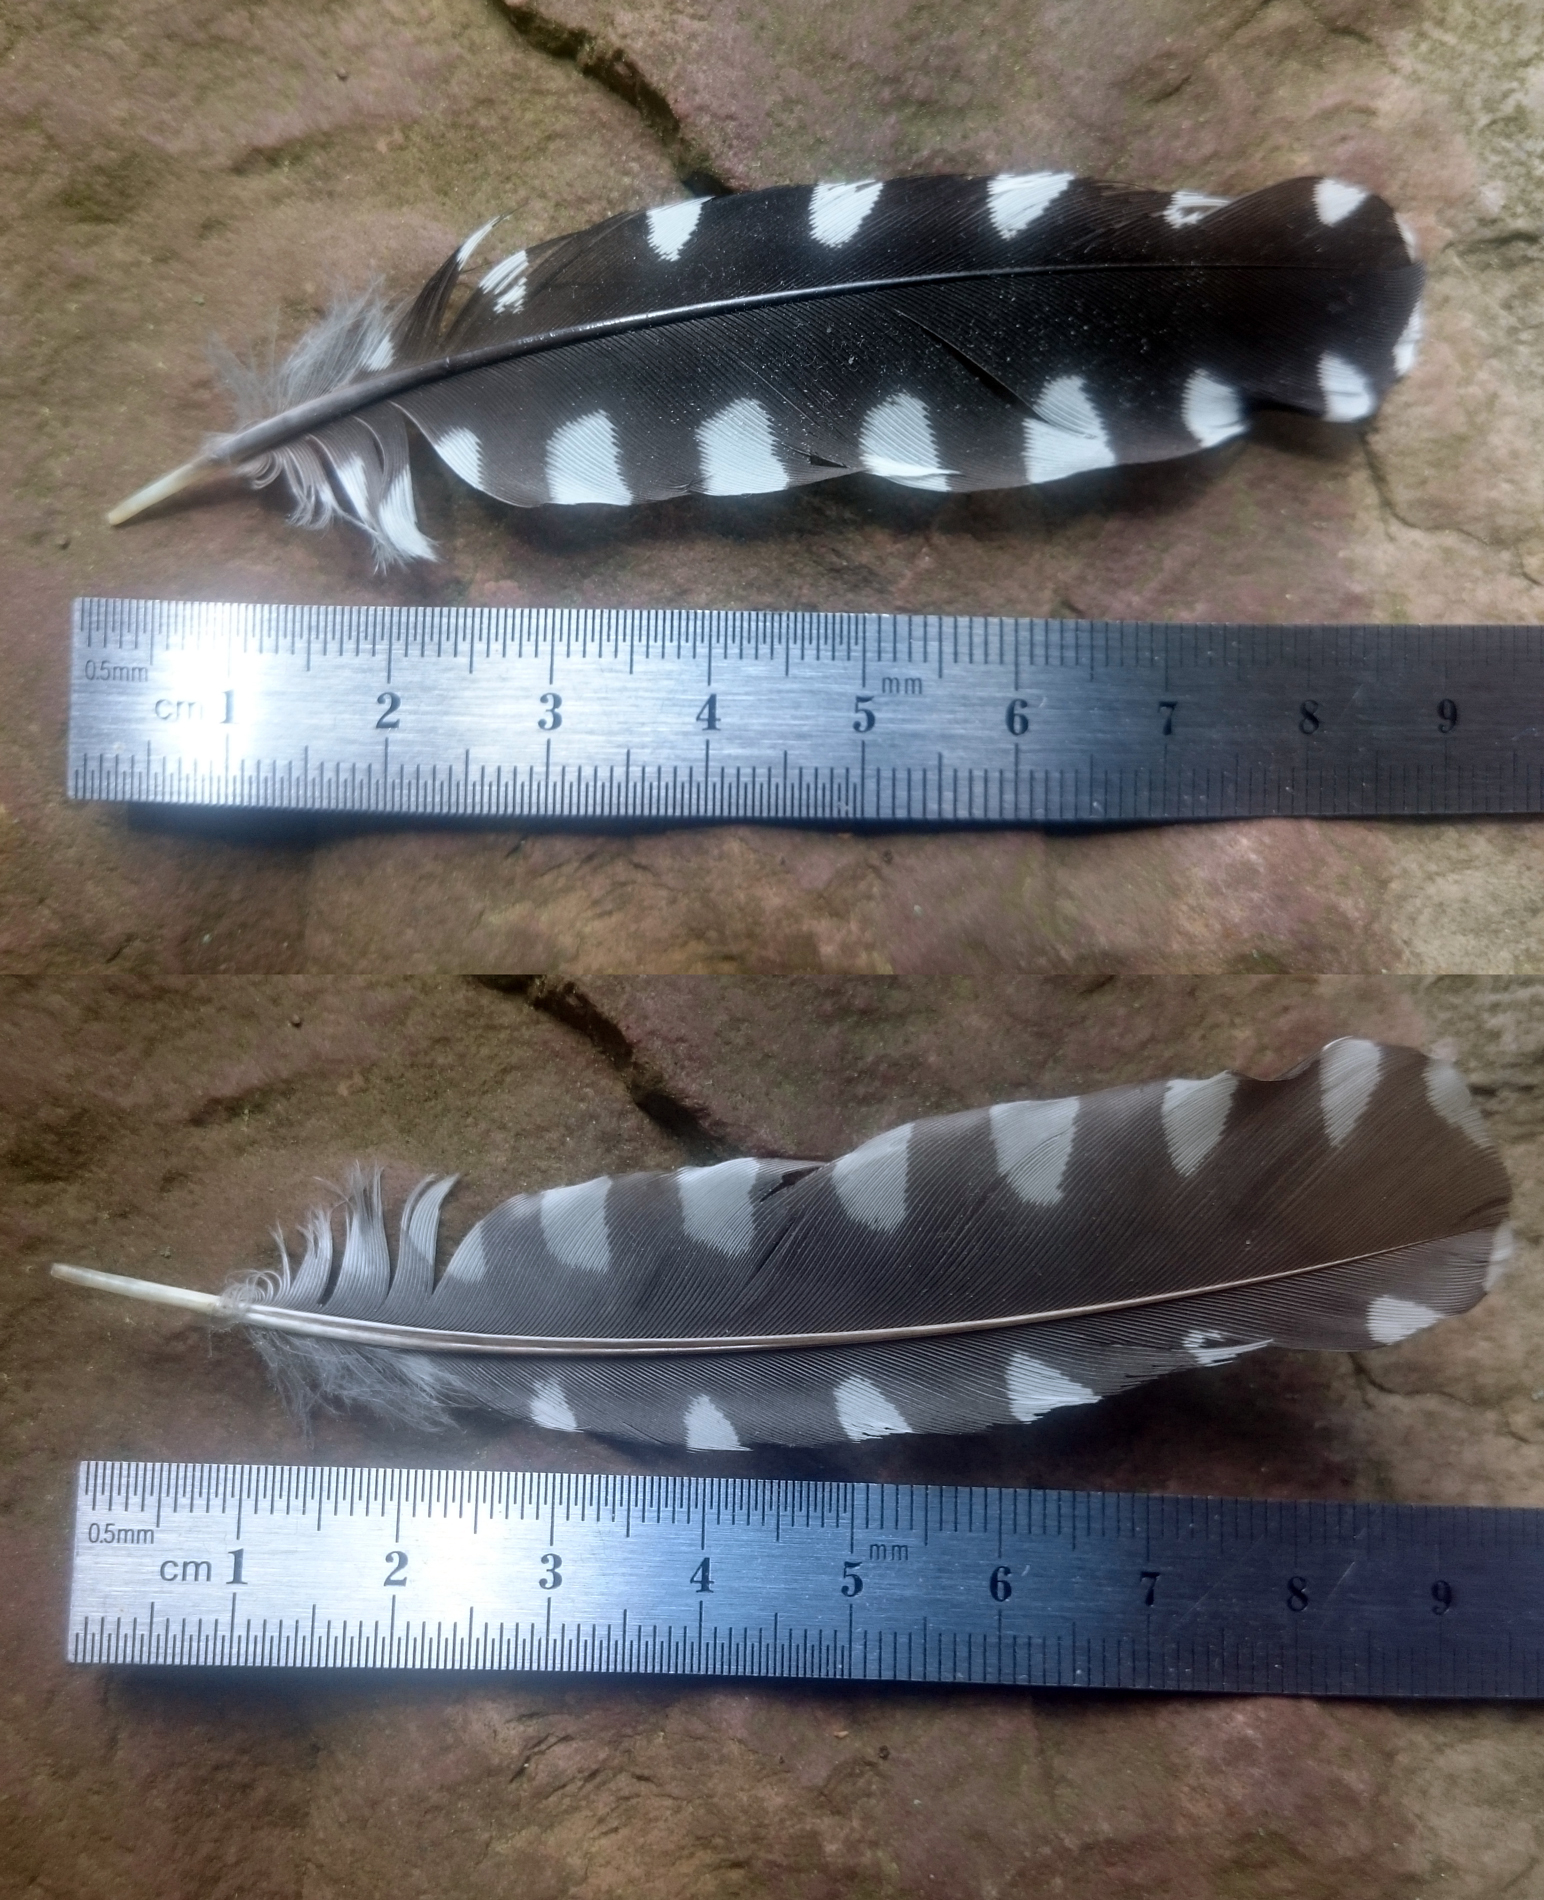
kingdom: Animalia
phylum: Chordata
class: Aves
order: Piciformes
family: Picidae
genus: Melanerpes
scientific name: Melanerpes carolinus
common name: Red-bellied woodpecker
